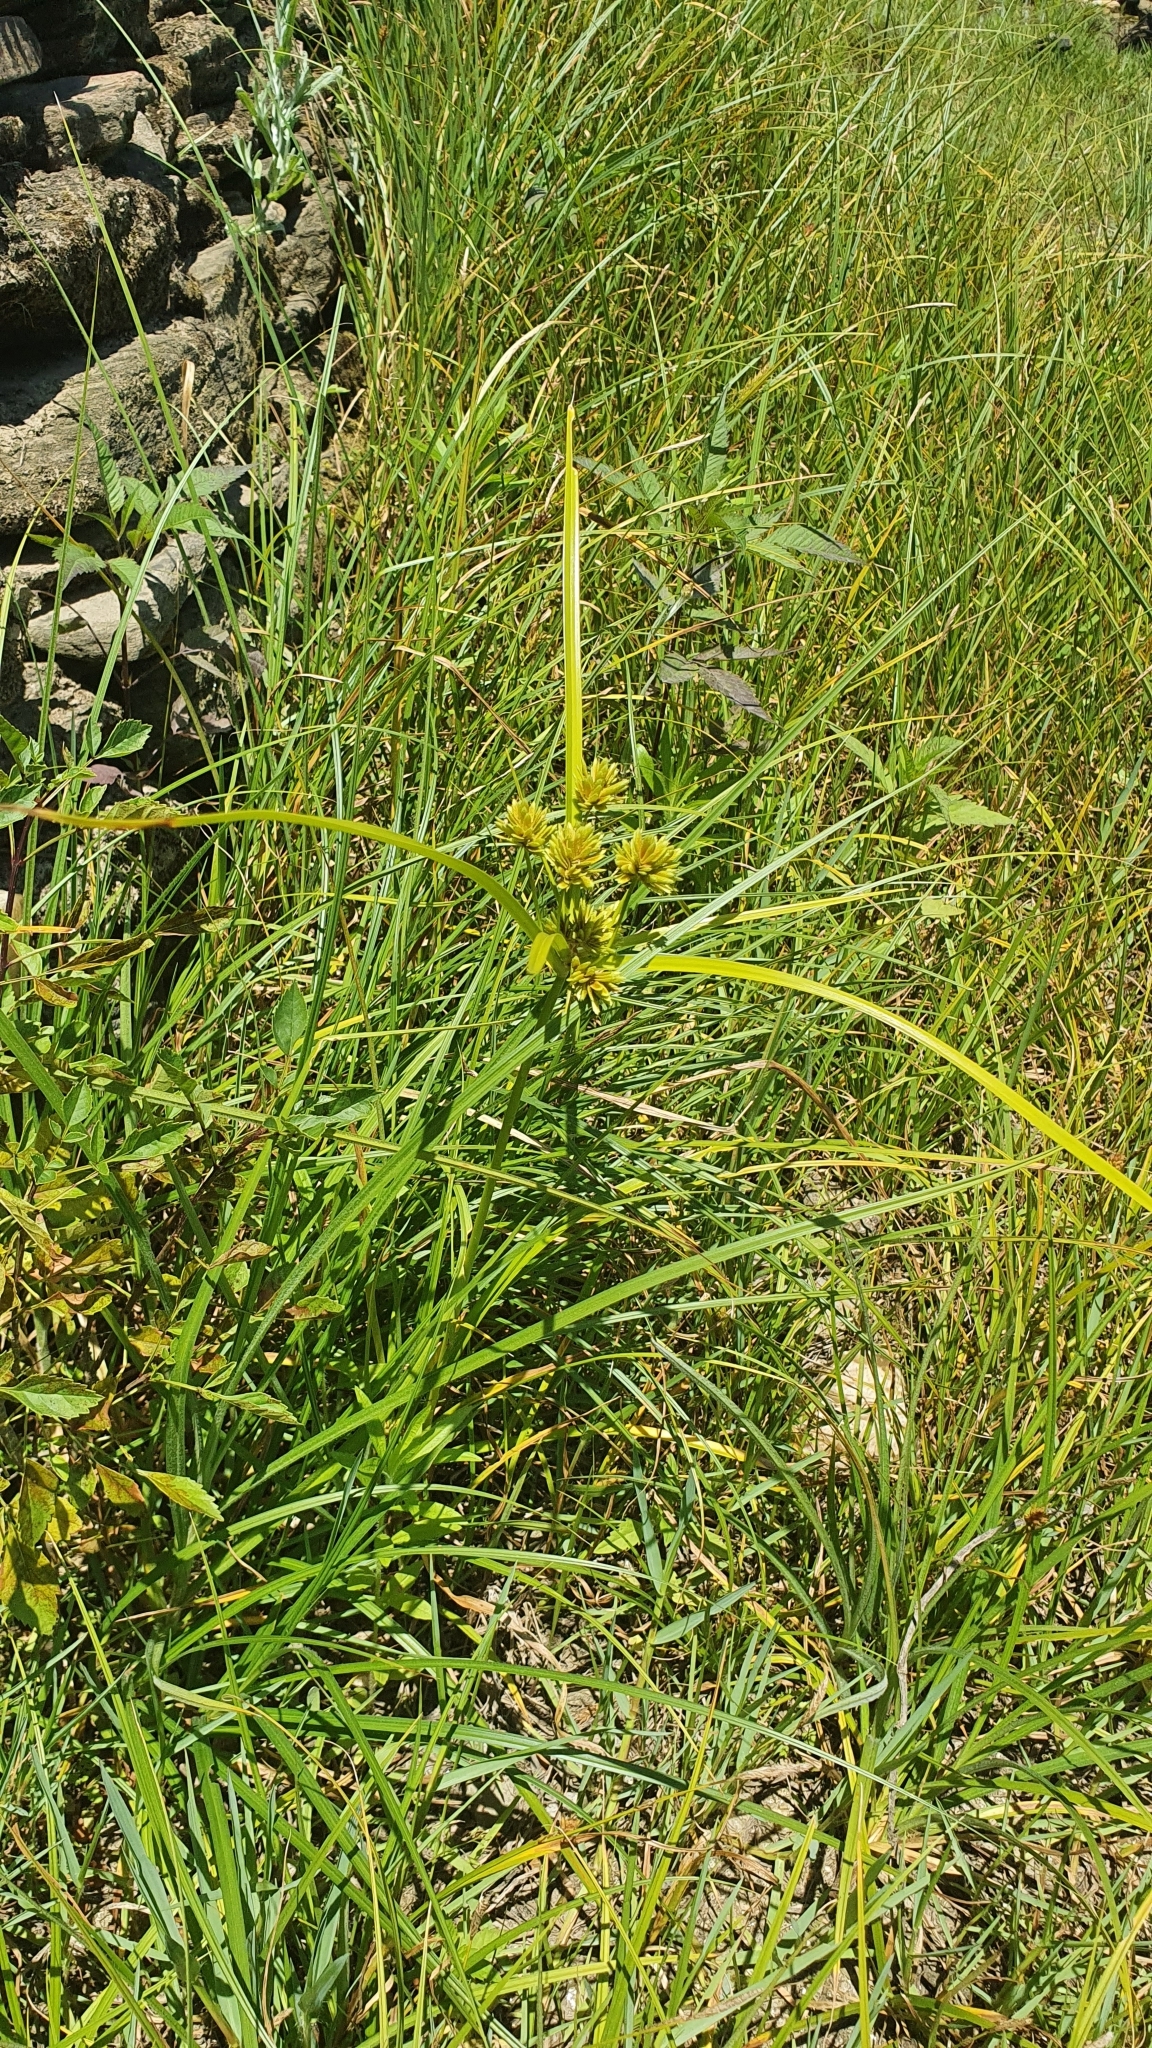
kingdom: Plantae
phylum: Tracheophyta
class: Liliopsida
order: Poales
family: Cyperaceae
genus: Cyperus
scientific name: Cyperus eragrostis
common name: Tall flatsedge
